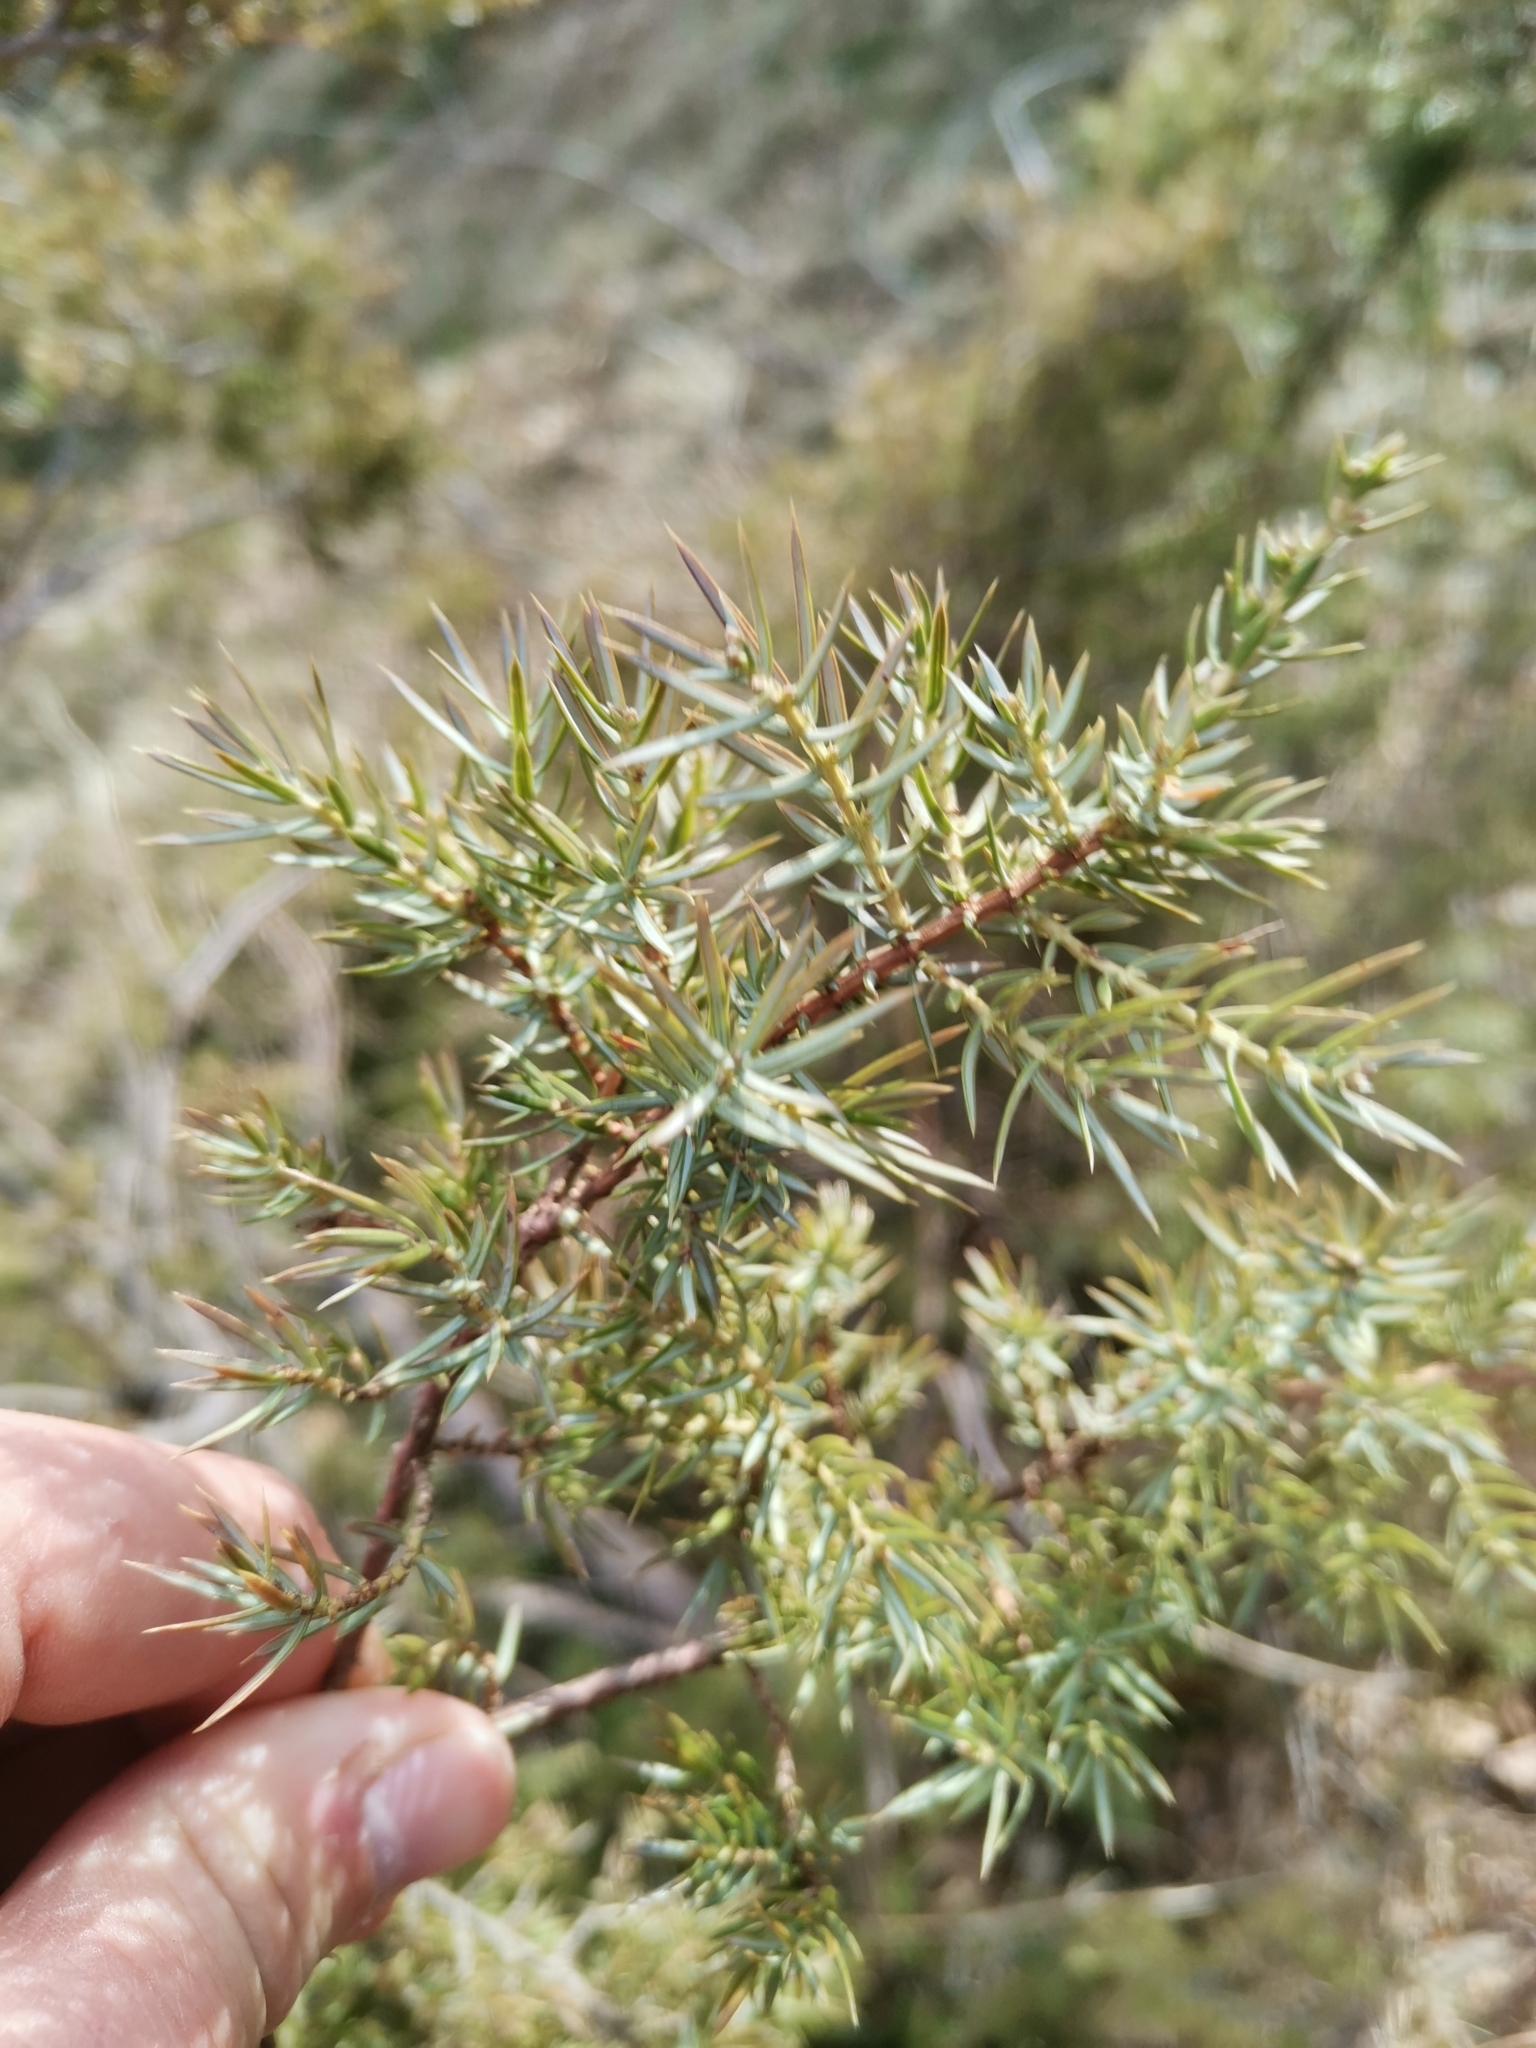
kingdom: Plantae
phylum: Tracheophyta
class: Pinopsida
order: Pinales
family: Cupressaceae
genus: Juniperus
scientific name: Juniperus communis
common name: Common juniper
